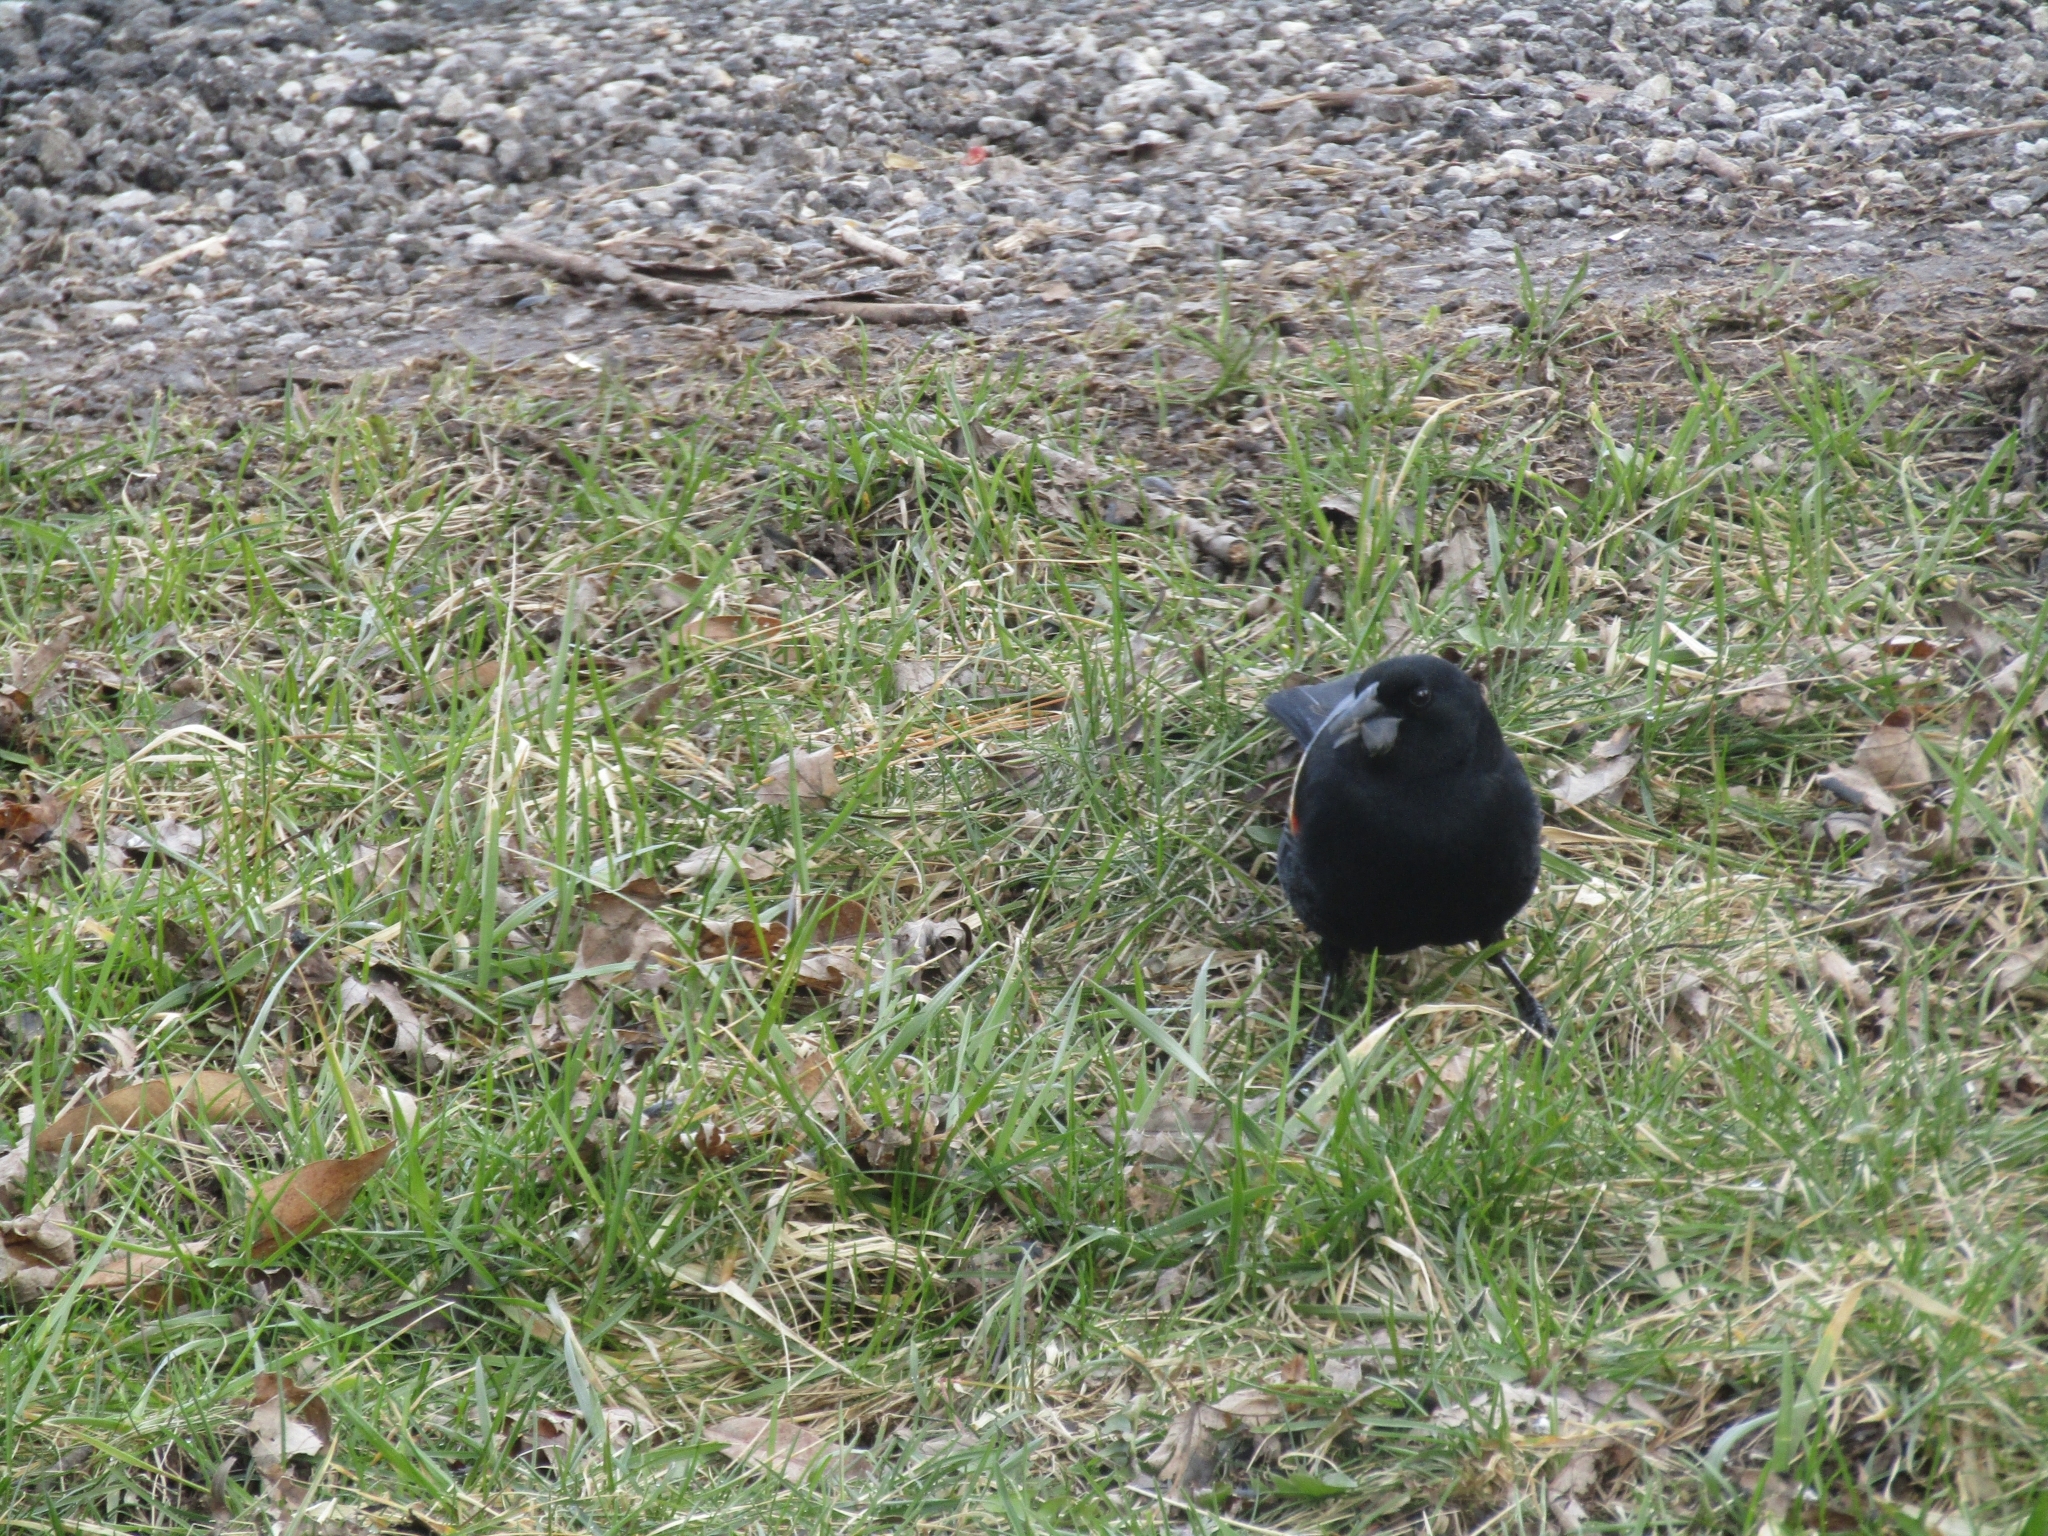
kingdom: Animalia
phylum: Chordata
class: Aves
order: Passeriformes
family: Icteridae
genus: Agelaius
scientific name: Agelaius phoeniceus
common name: Red-winged blackbird
